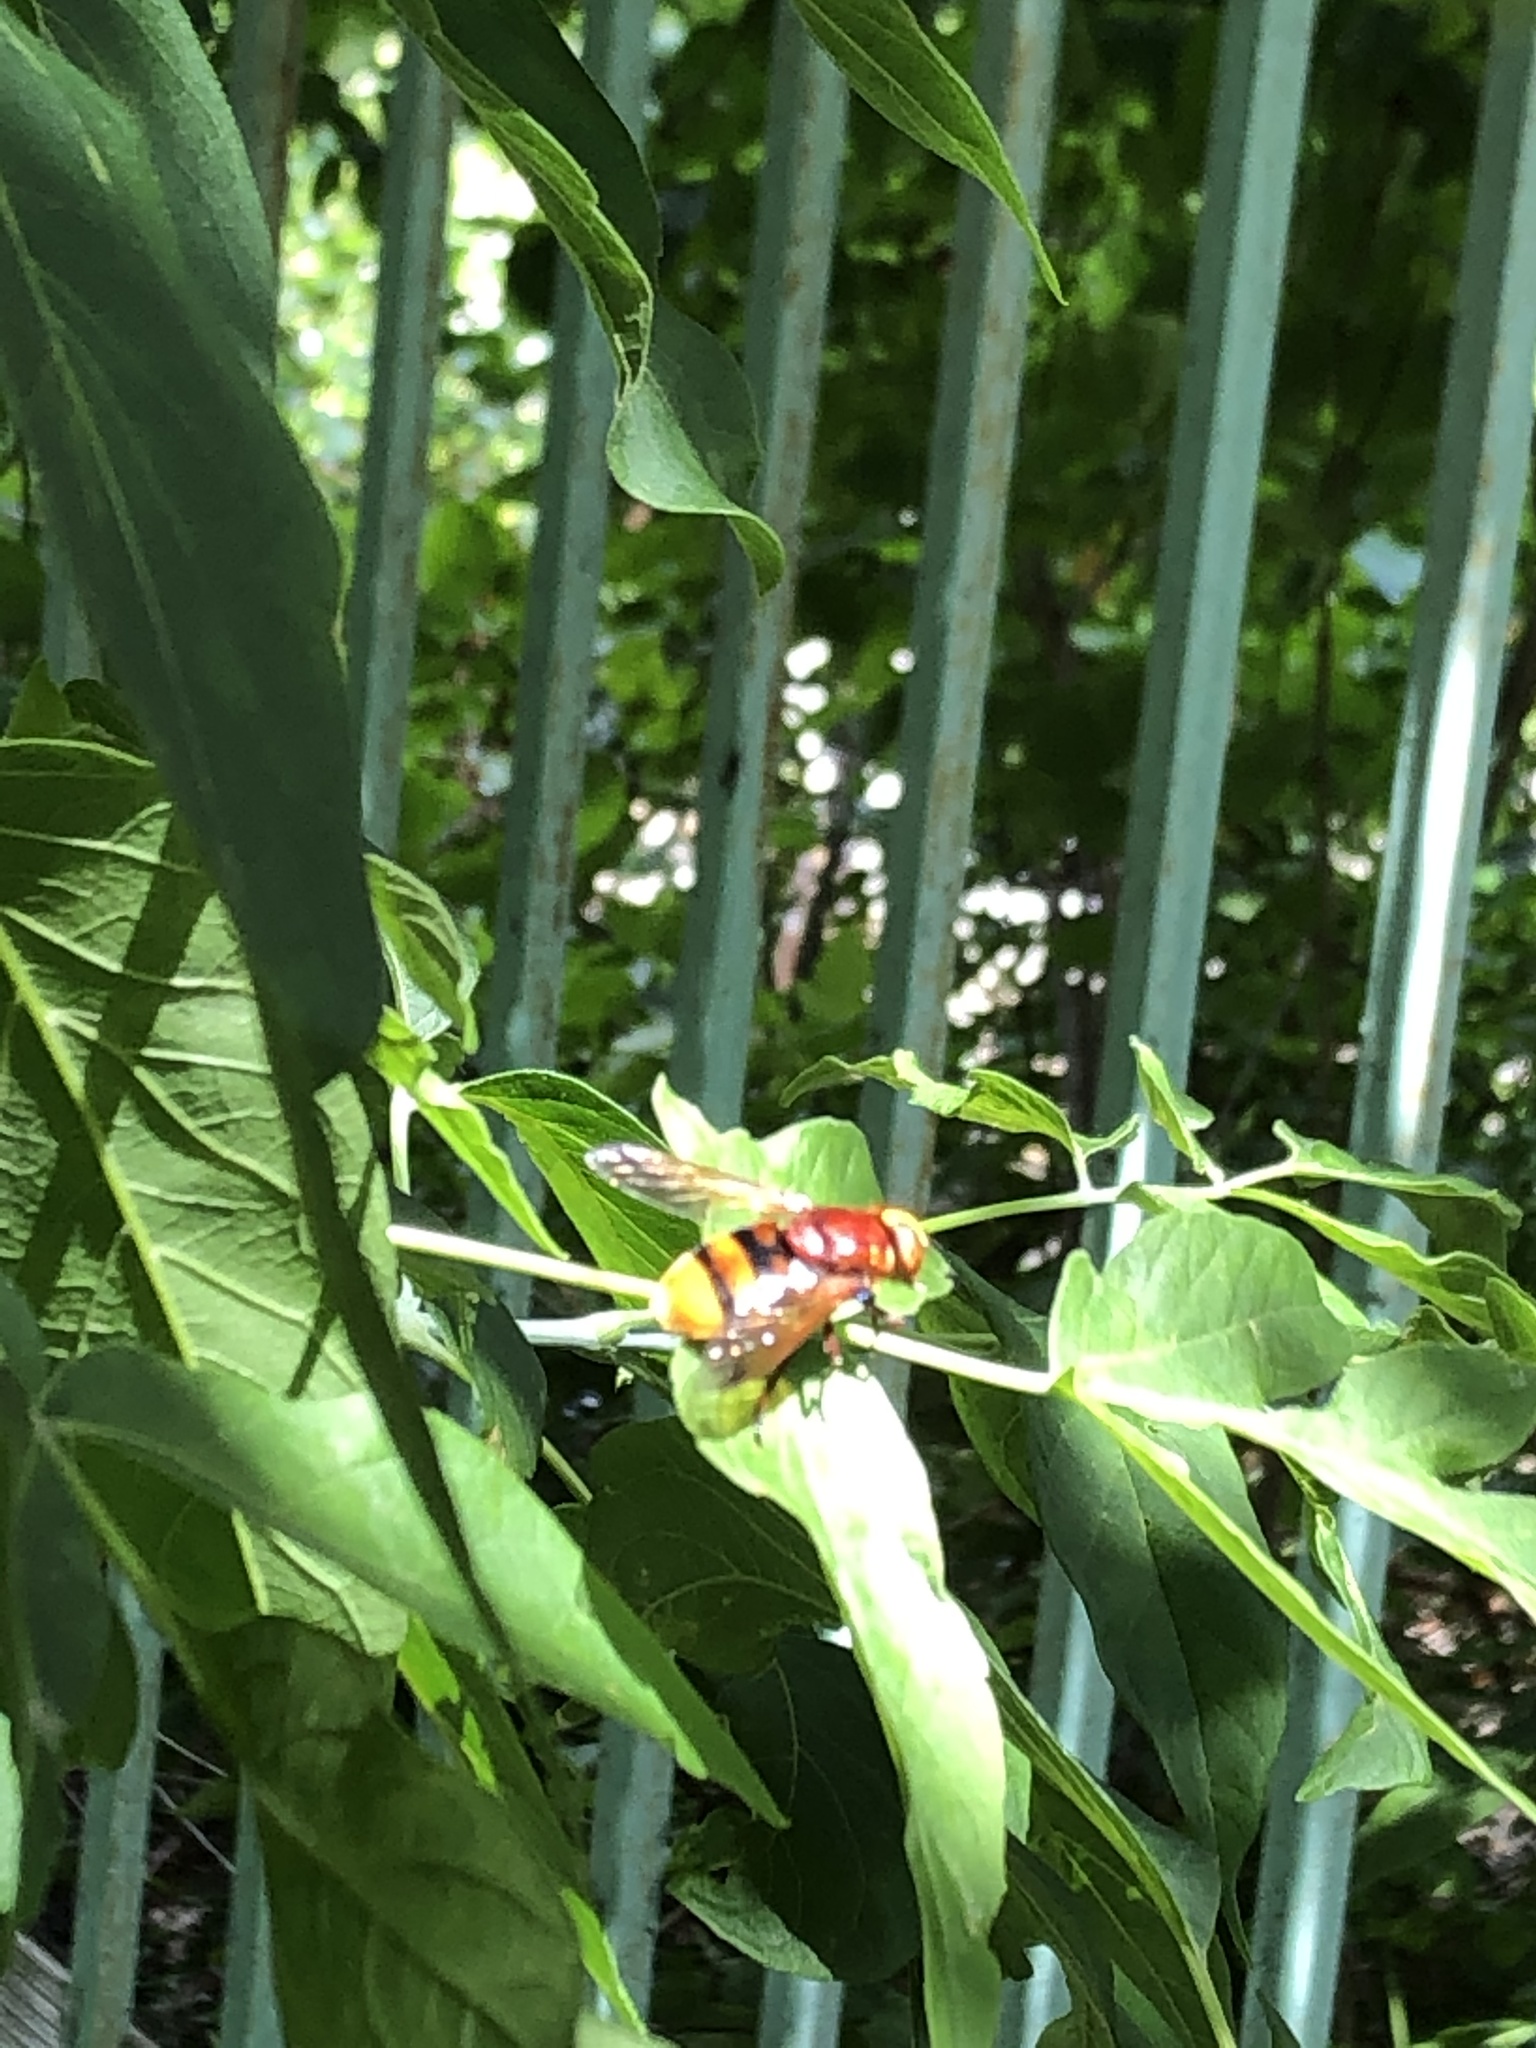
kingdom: Animalia
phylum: Arthropoda
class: Insecta
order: Diptera
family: Syrphidae
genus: Volucella
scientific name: Volucella zonaria
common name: Hornet hoverfly
